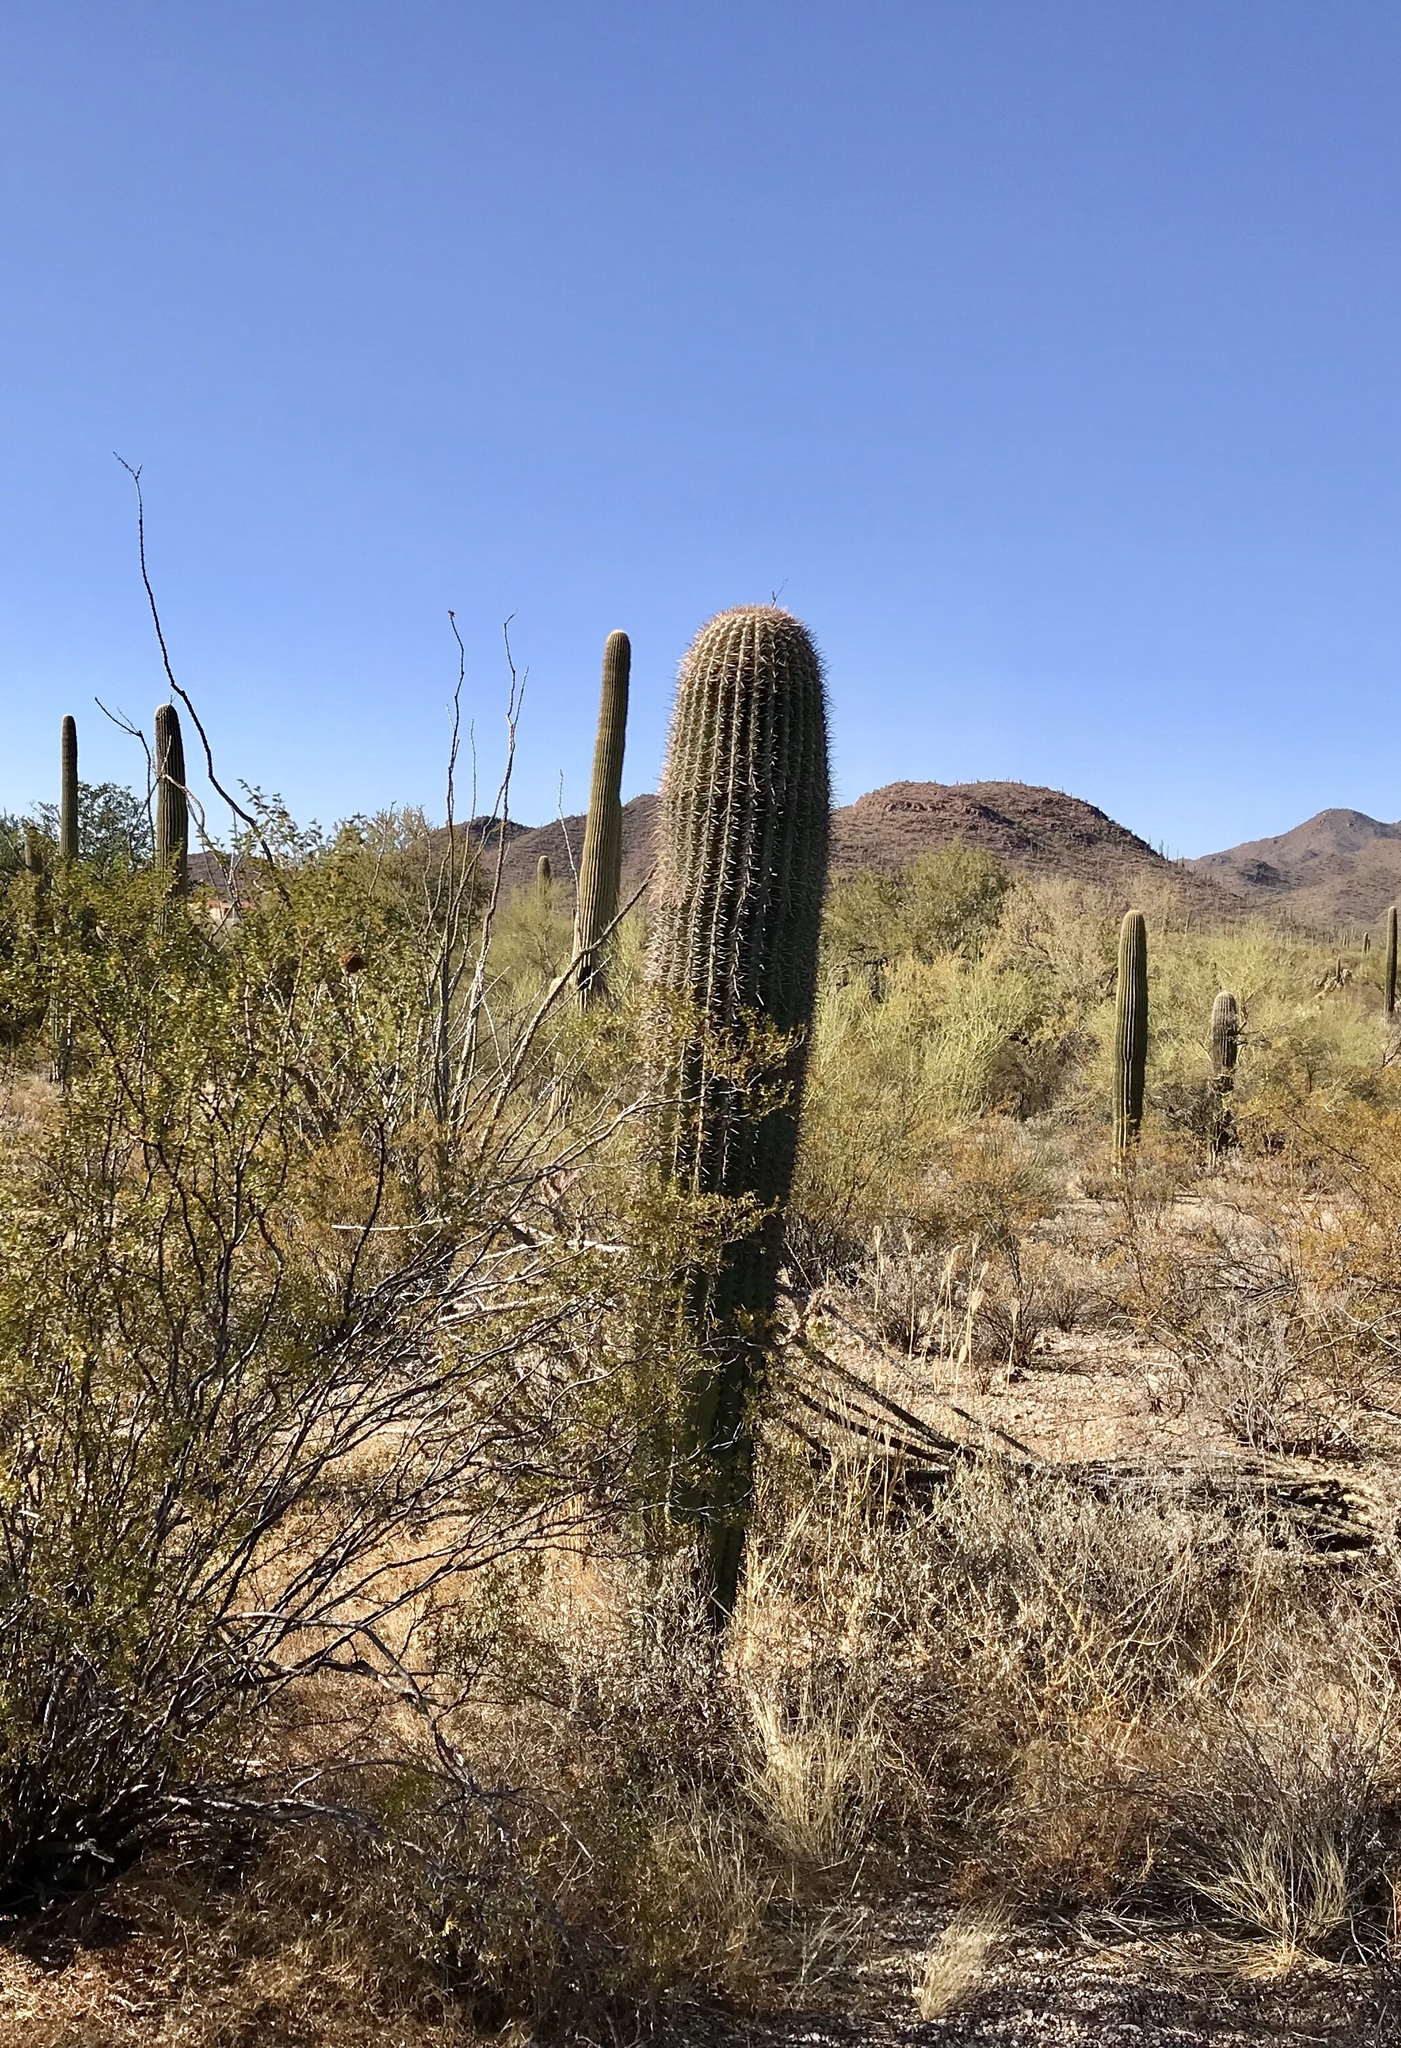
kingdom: Plantae
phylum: Tracheophyta
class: Magnoliopsida
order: Caryophyllales
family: Cactaceae
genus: Carnegiea
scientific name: Carnegiea gigantea
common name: Saguaro
